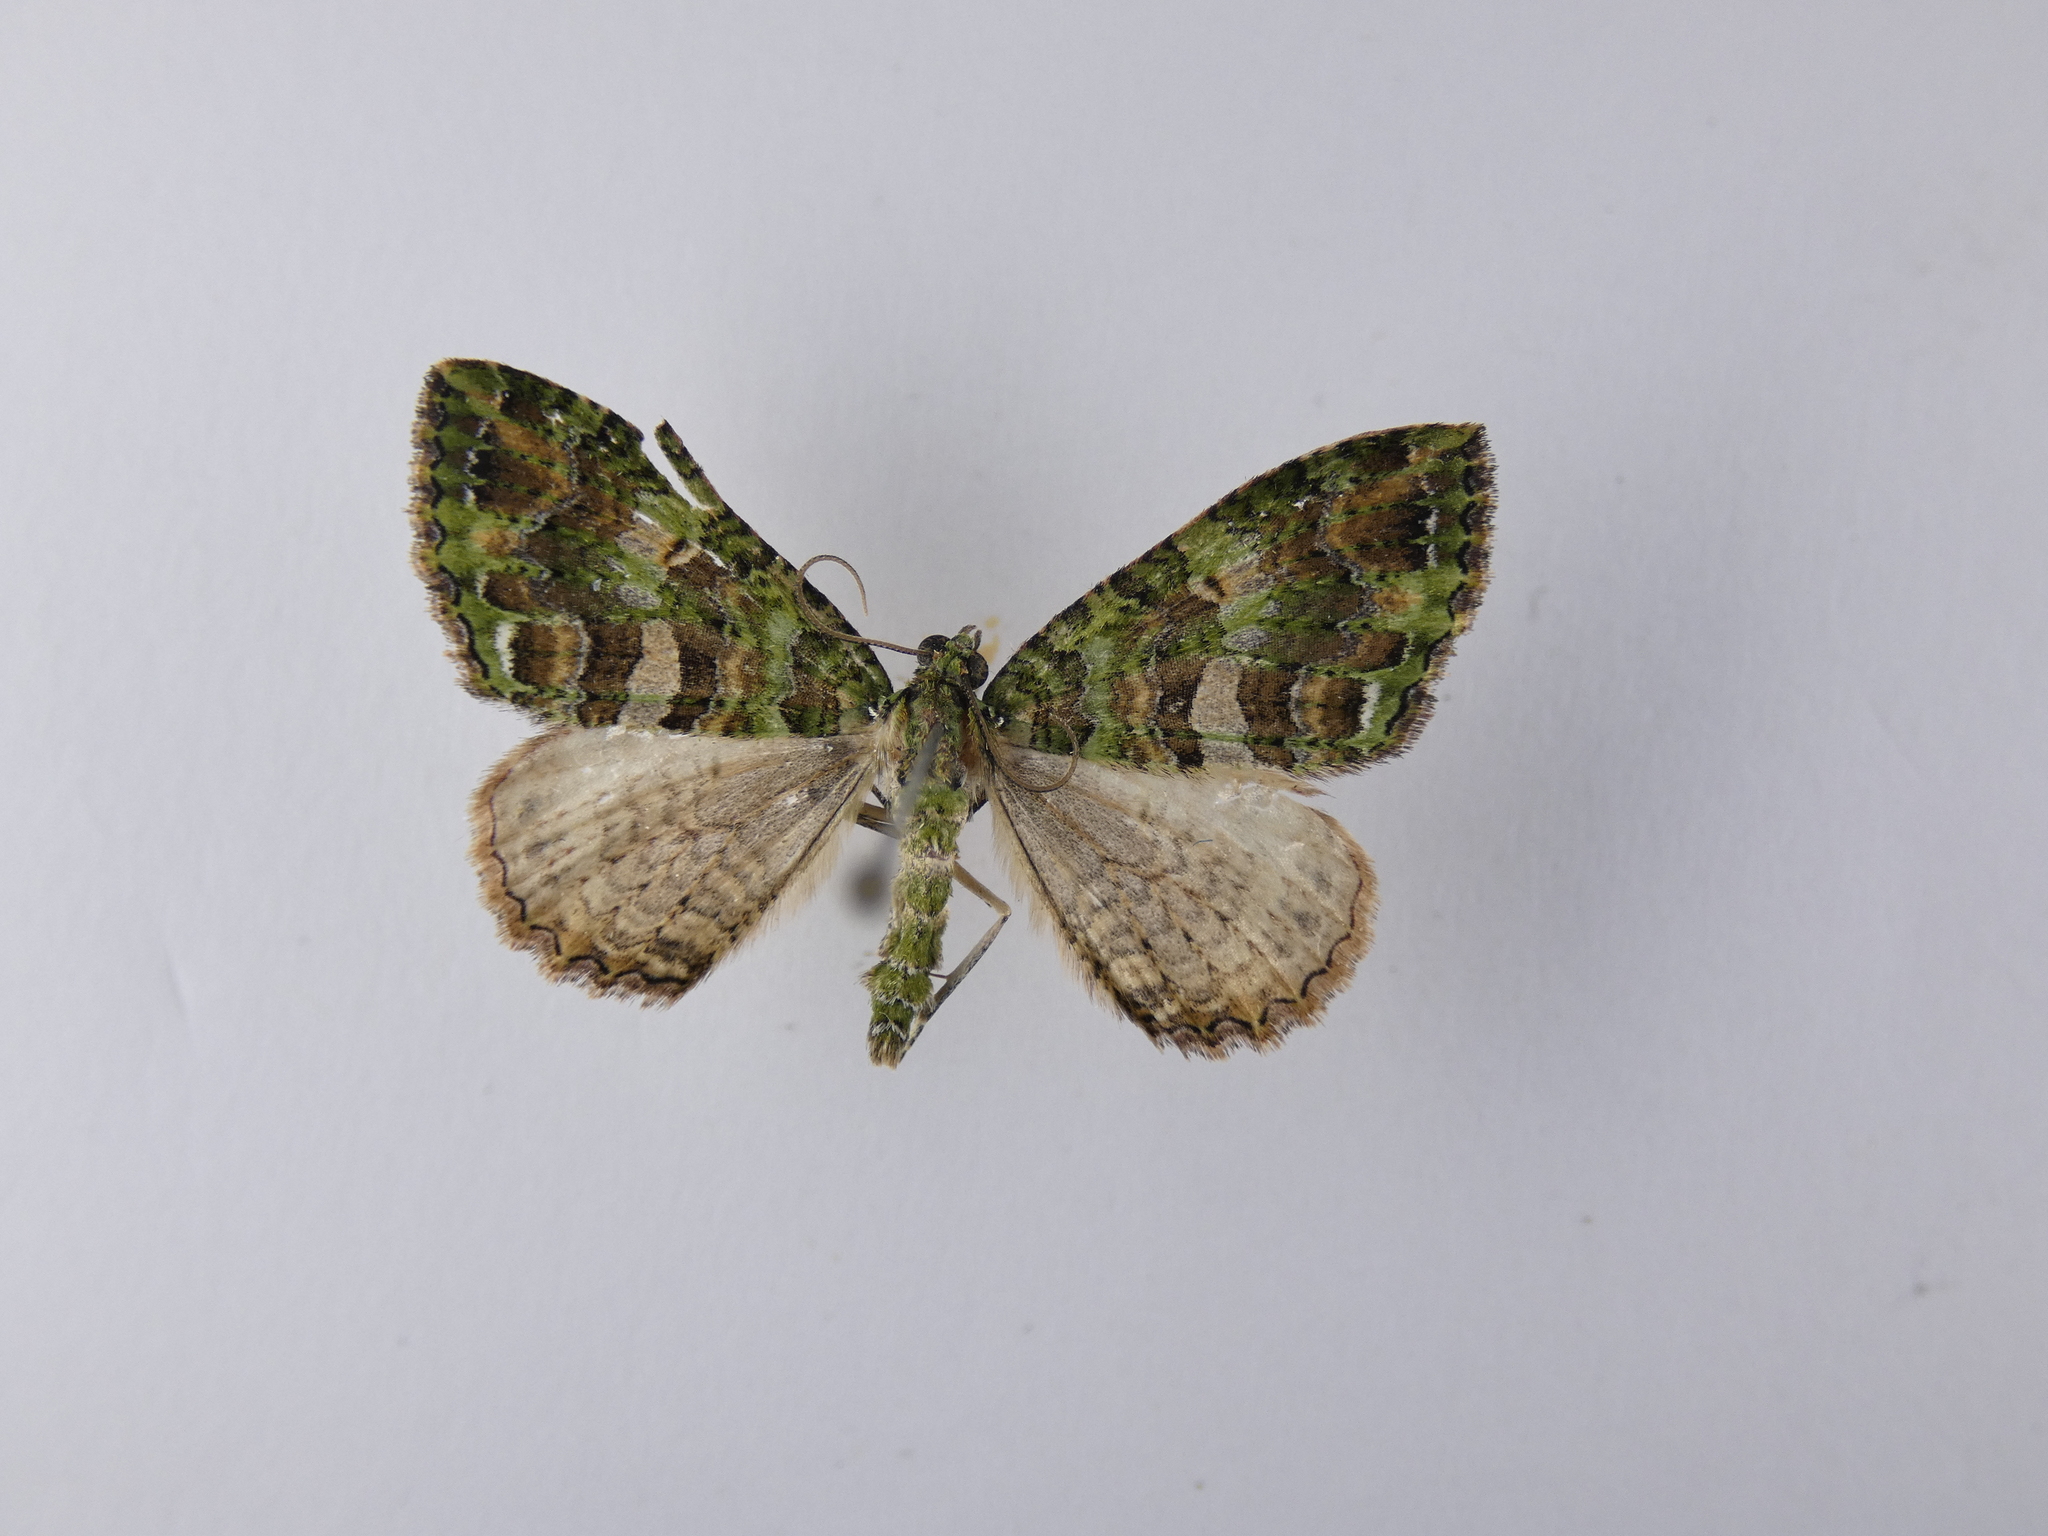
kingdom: Animalia
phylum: Arthropoda
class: Insecta
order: Lepidoptera
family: Geometridae
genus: Austrocidaria
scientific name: Austrocidaria similata
